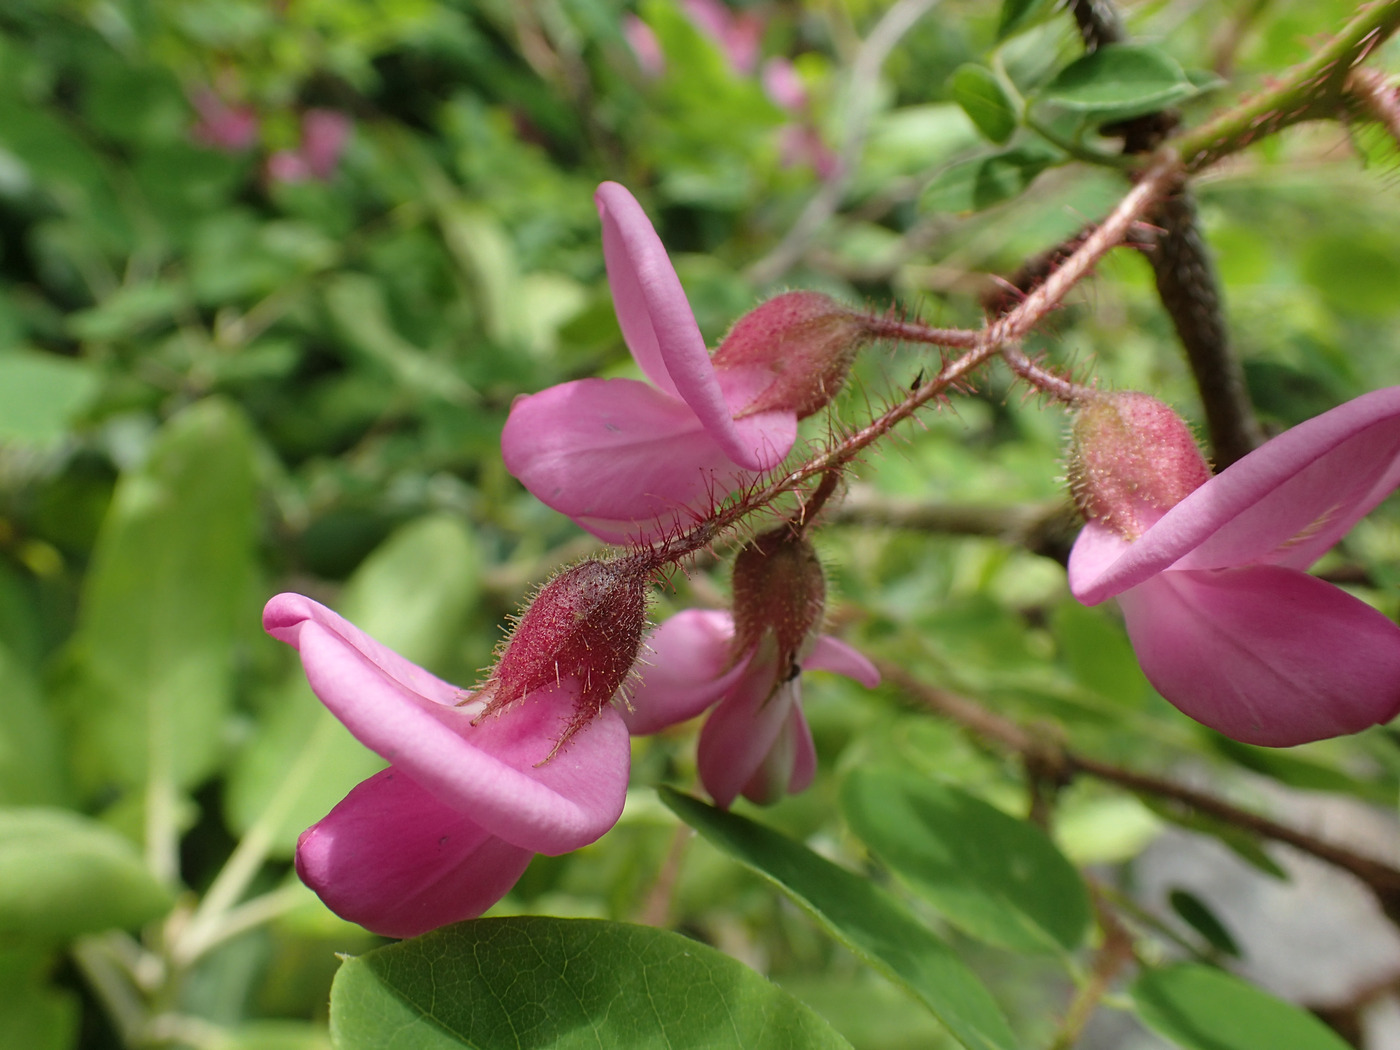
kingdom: Plantae
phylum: Tracheophyta
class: Magnoliopsida
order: Fabales
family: Fabaceae
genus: Robinia
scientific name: Robinia hispida
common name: Bristly locust
